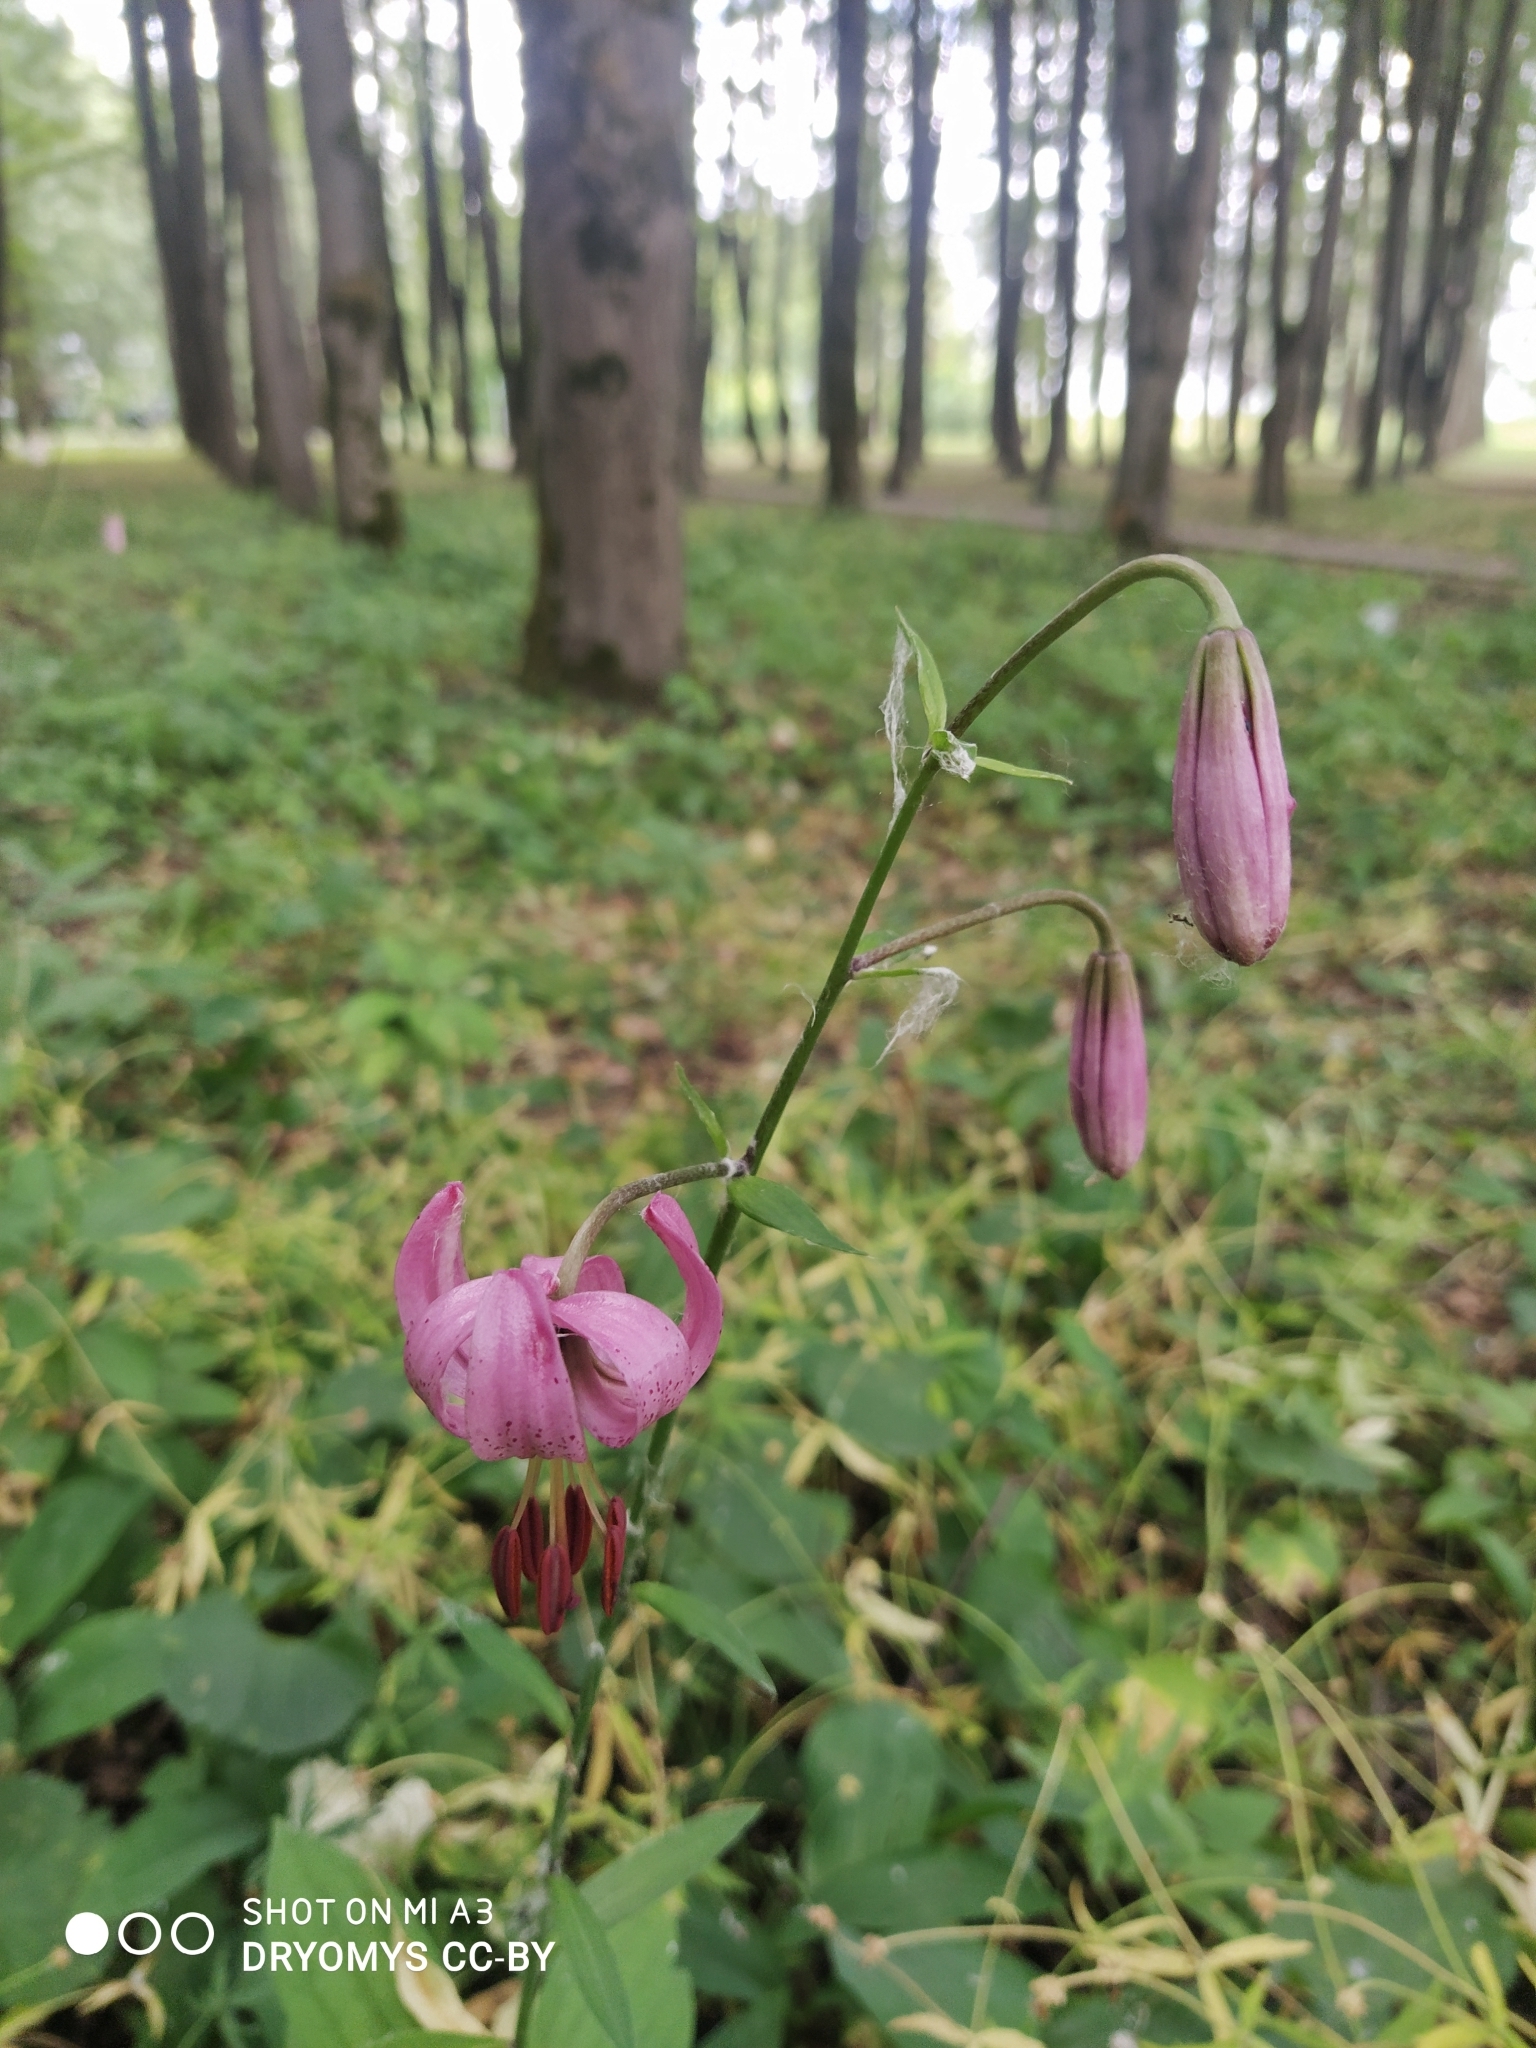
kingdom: Plantae
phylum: Tracheophyta
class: Liliopsida
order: Liliales
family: Liliaceae
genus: Lilium
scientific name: Lilium martagon
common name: Martagon lily
